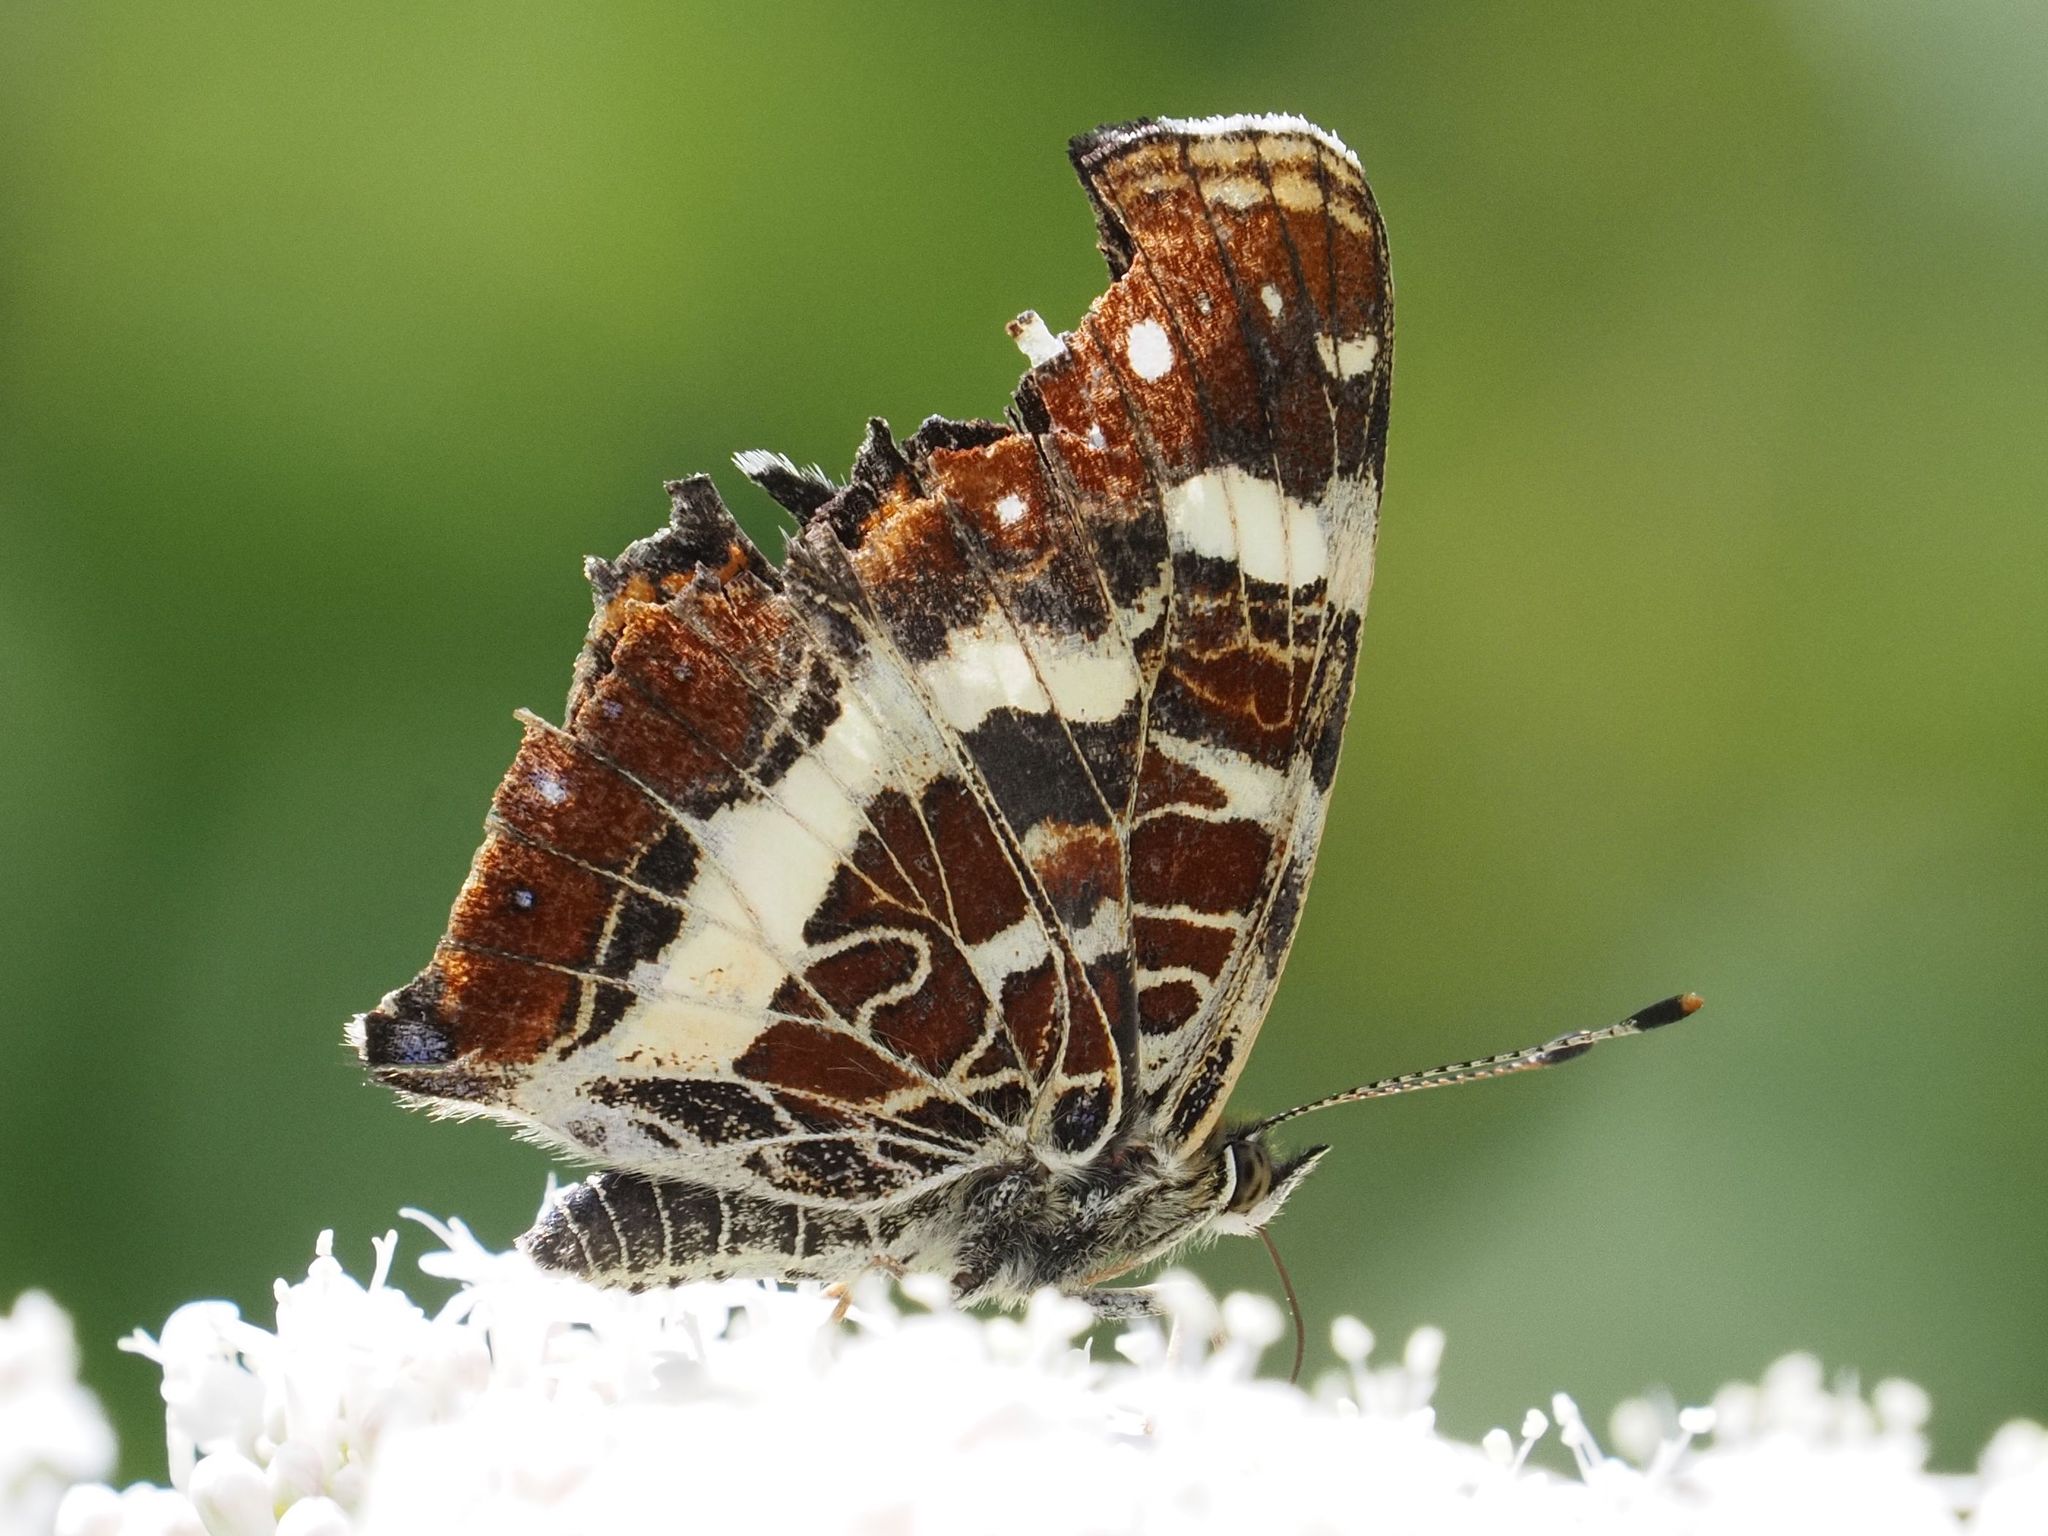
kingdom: Animalia
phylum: Arthropoda
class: Insecta
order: Lepidoptera
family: Nymphalidae
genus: Araschnia
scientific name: Araschnia levana
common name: Map butterfly
